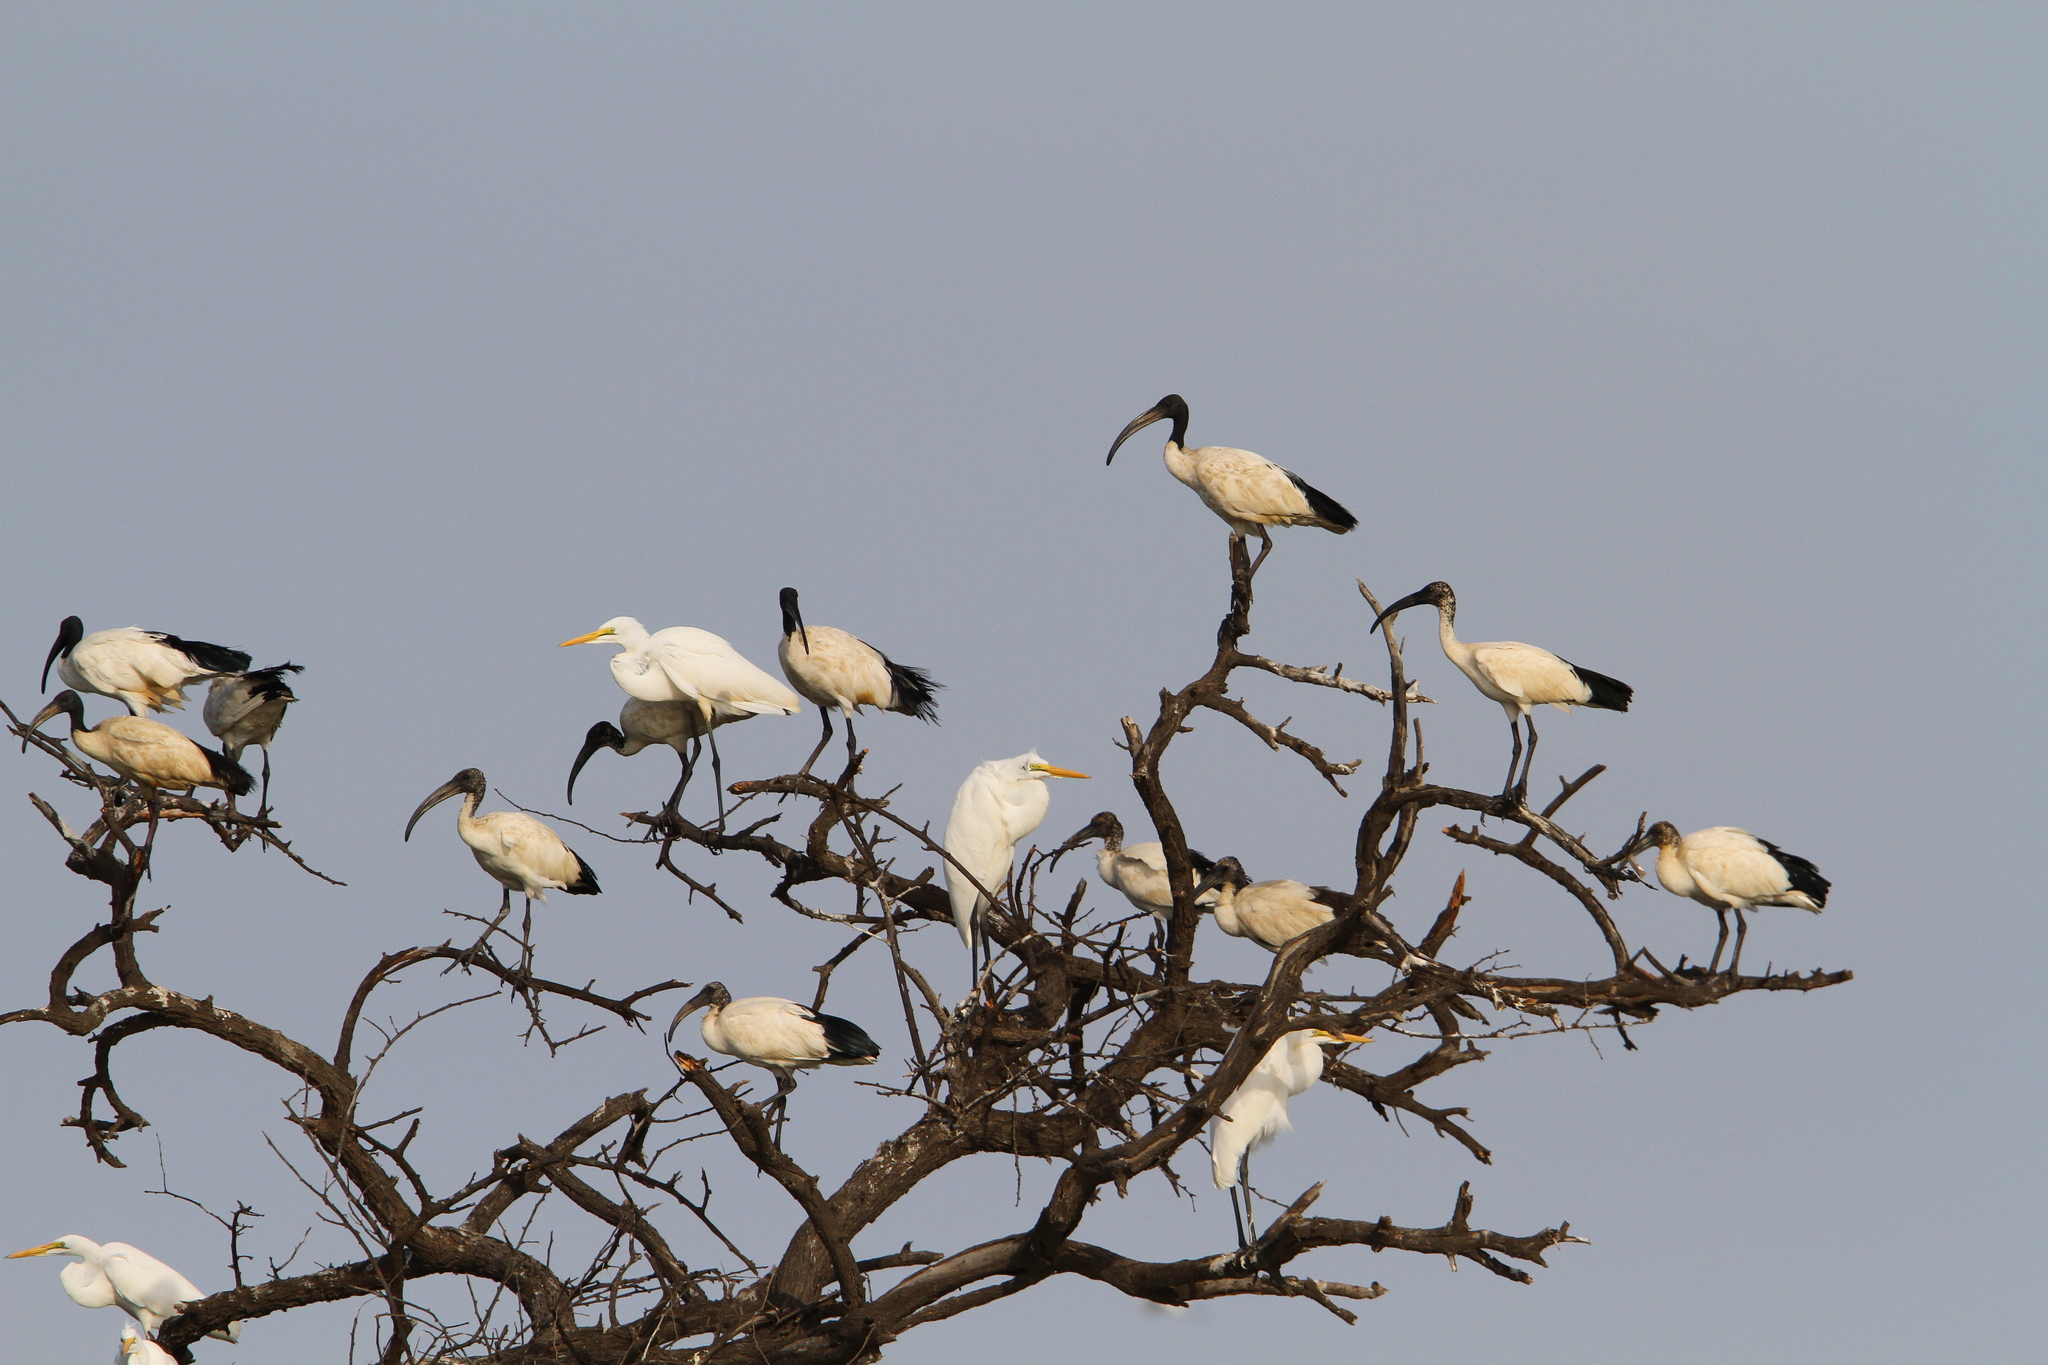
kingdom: Animalia
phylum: Chordata
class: Aves
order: Pelecaniformes
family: Threskiornithidae
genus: Threskiornis
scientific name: Threskiornis aethiopicus
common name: Sacred ibis
